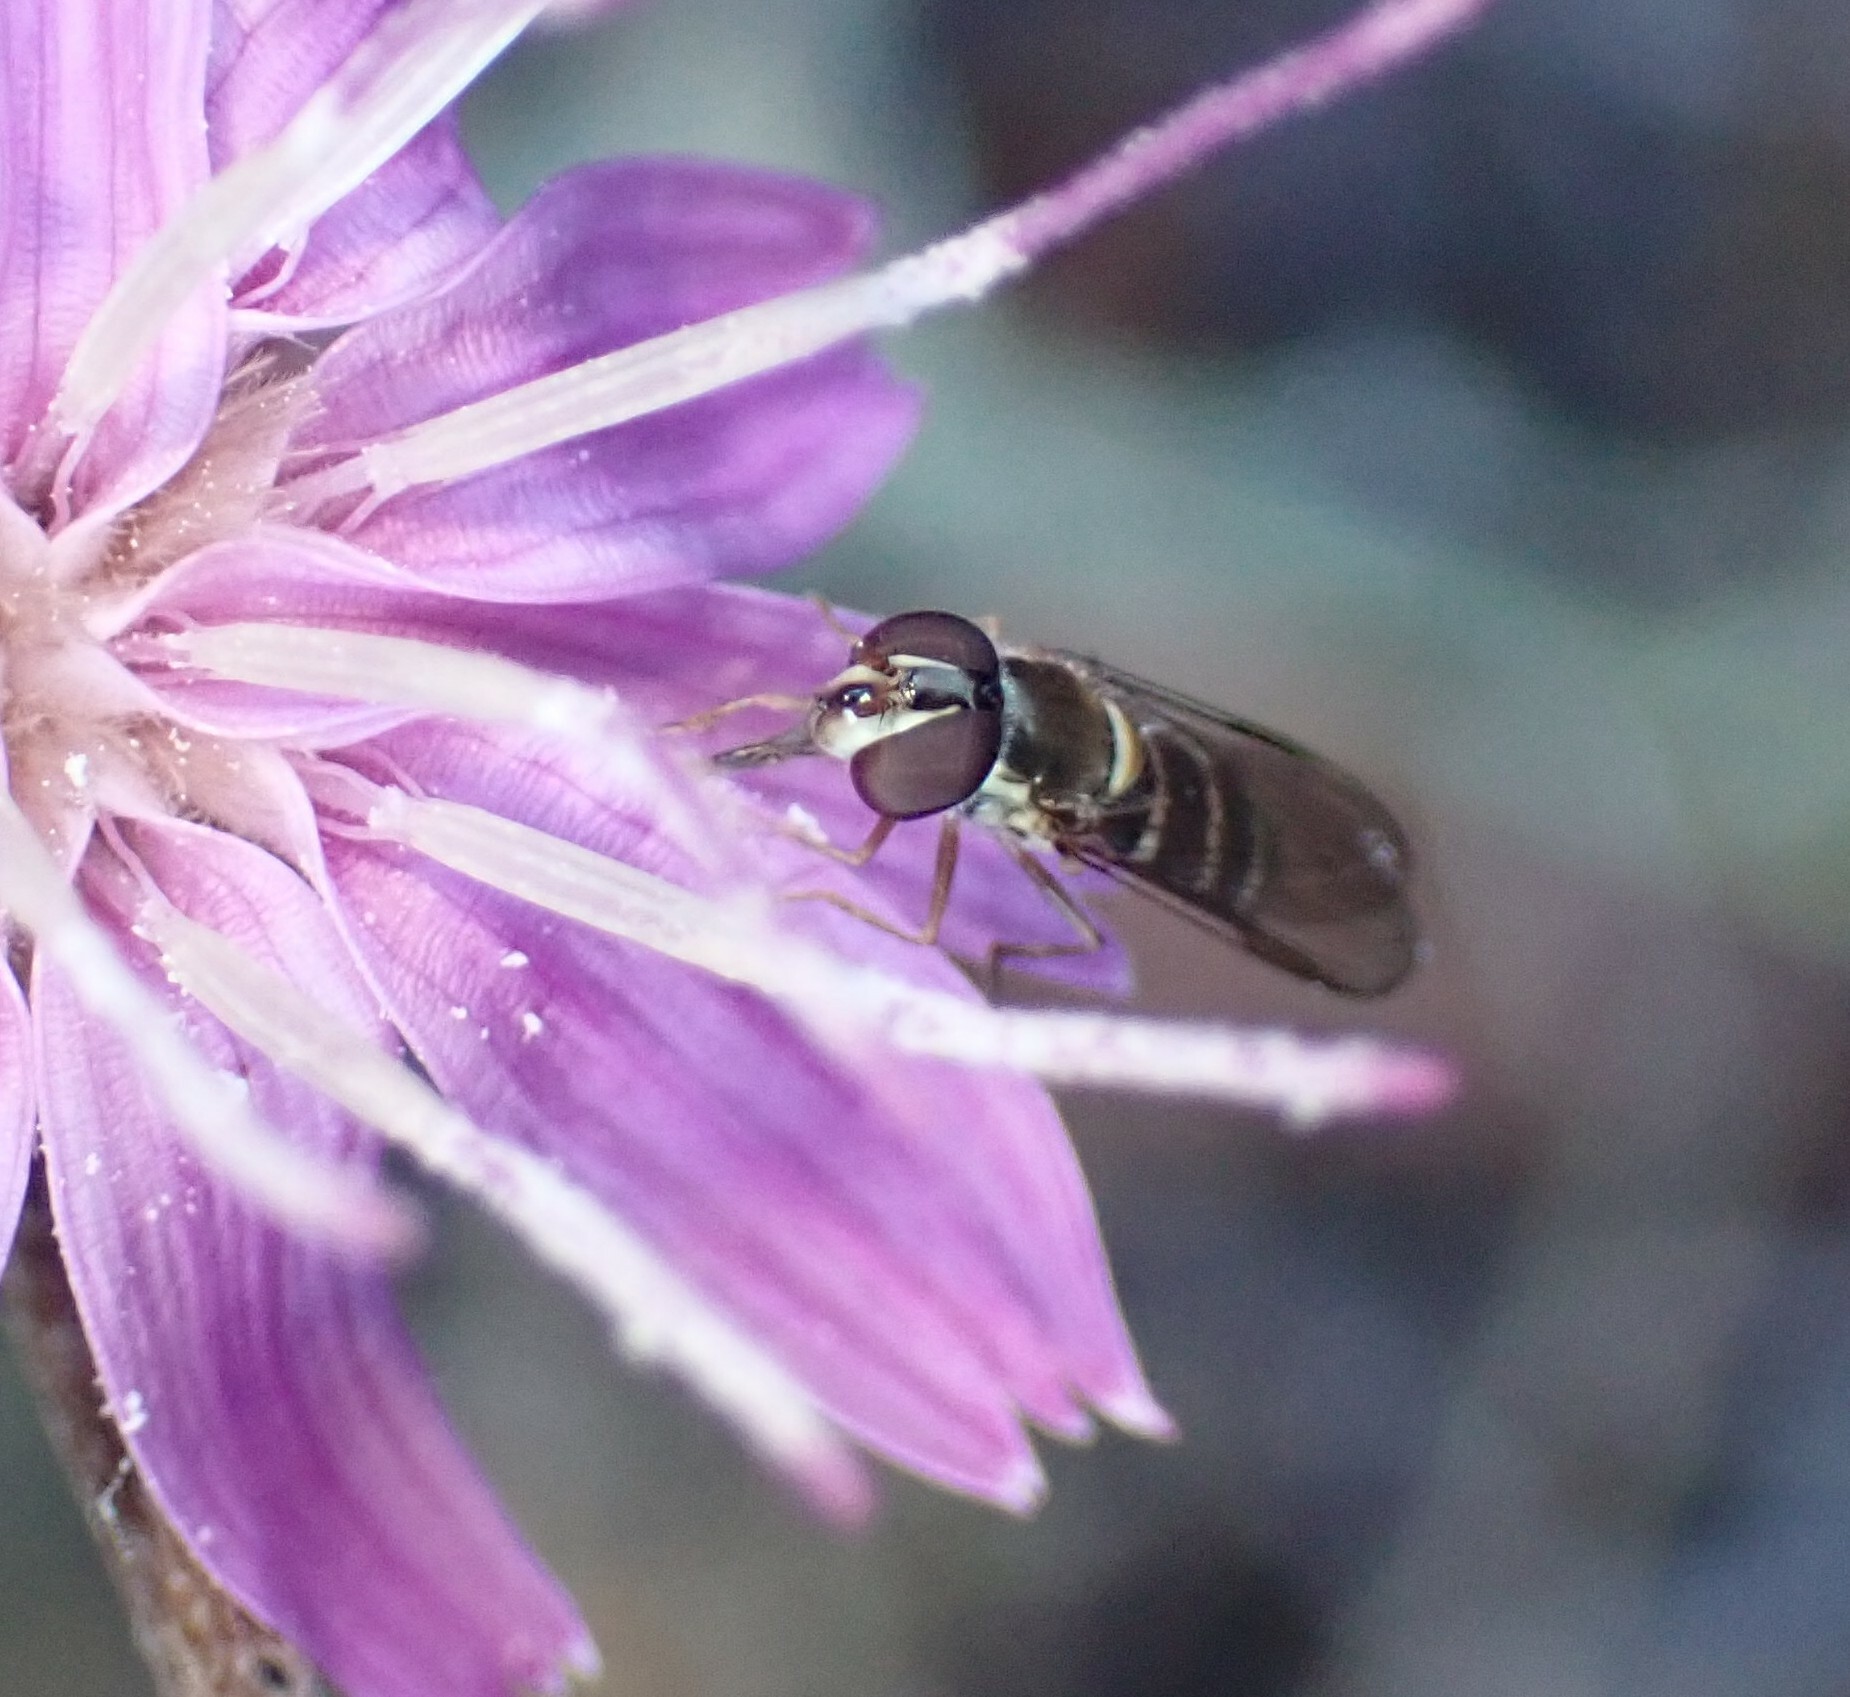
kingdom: Animalia
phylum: Arthropoda
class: Insecta
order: Diptera
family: Syrphidae
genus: Fazia
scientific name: Fazia micrura
